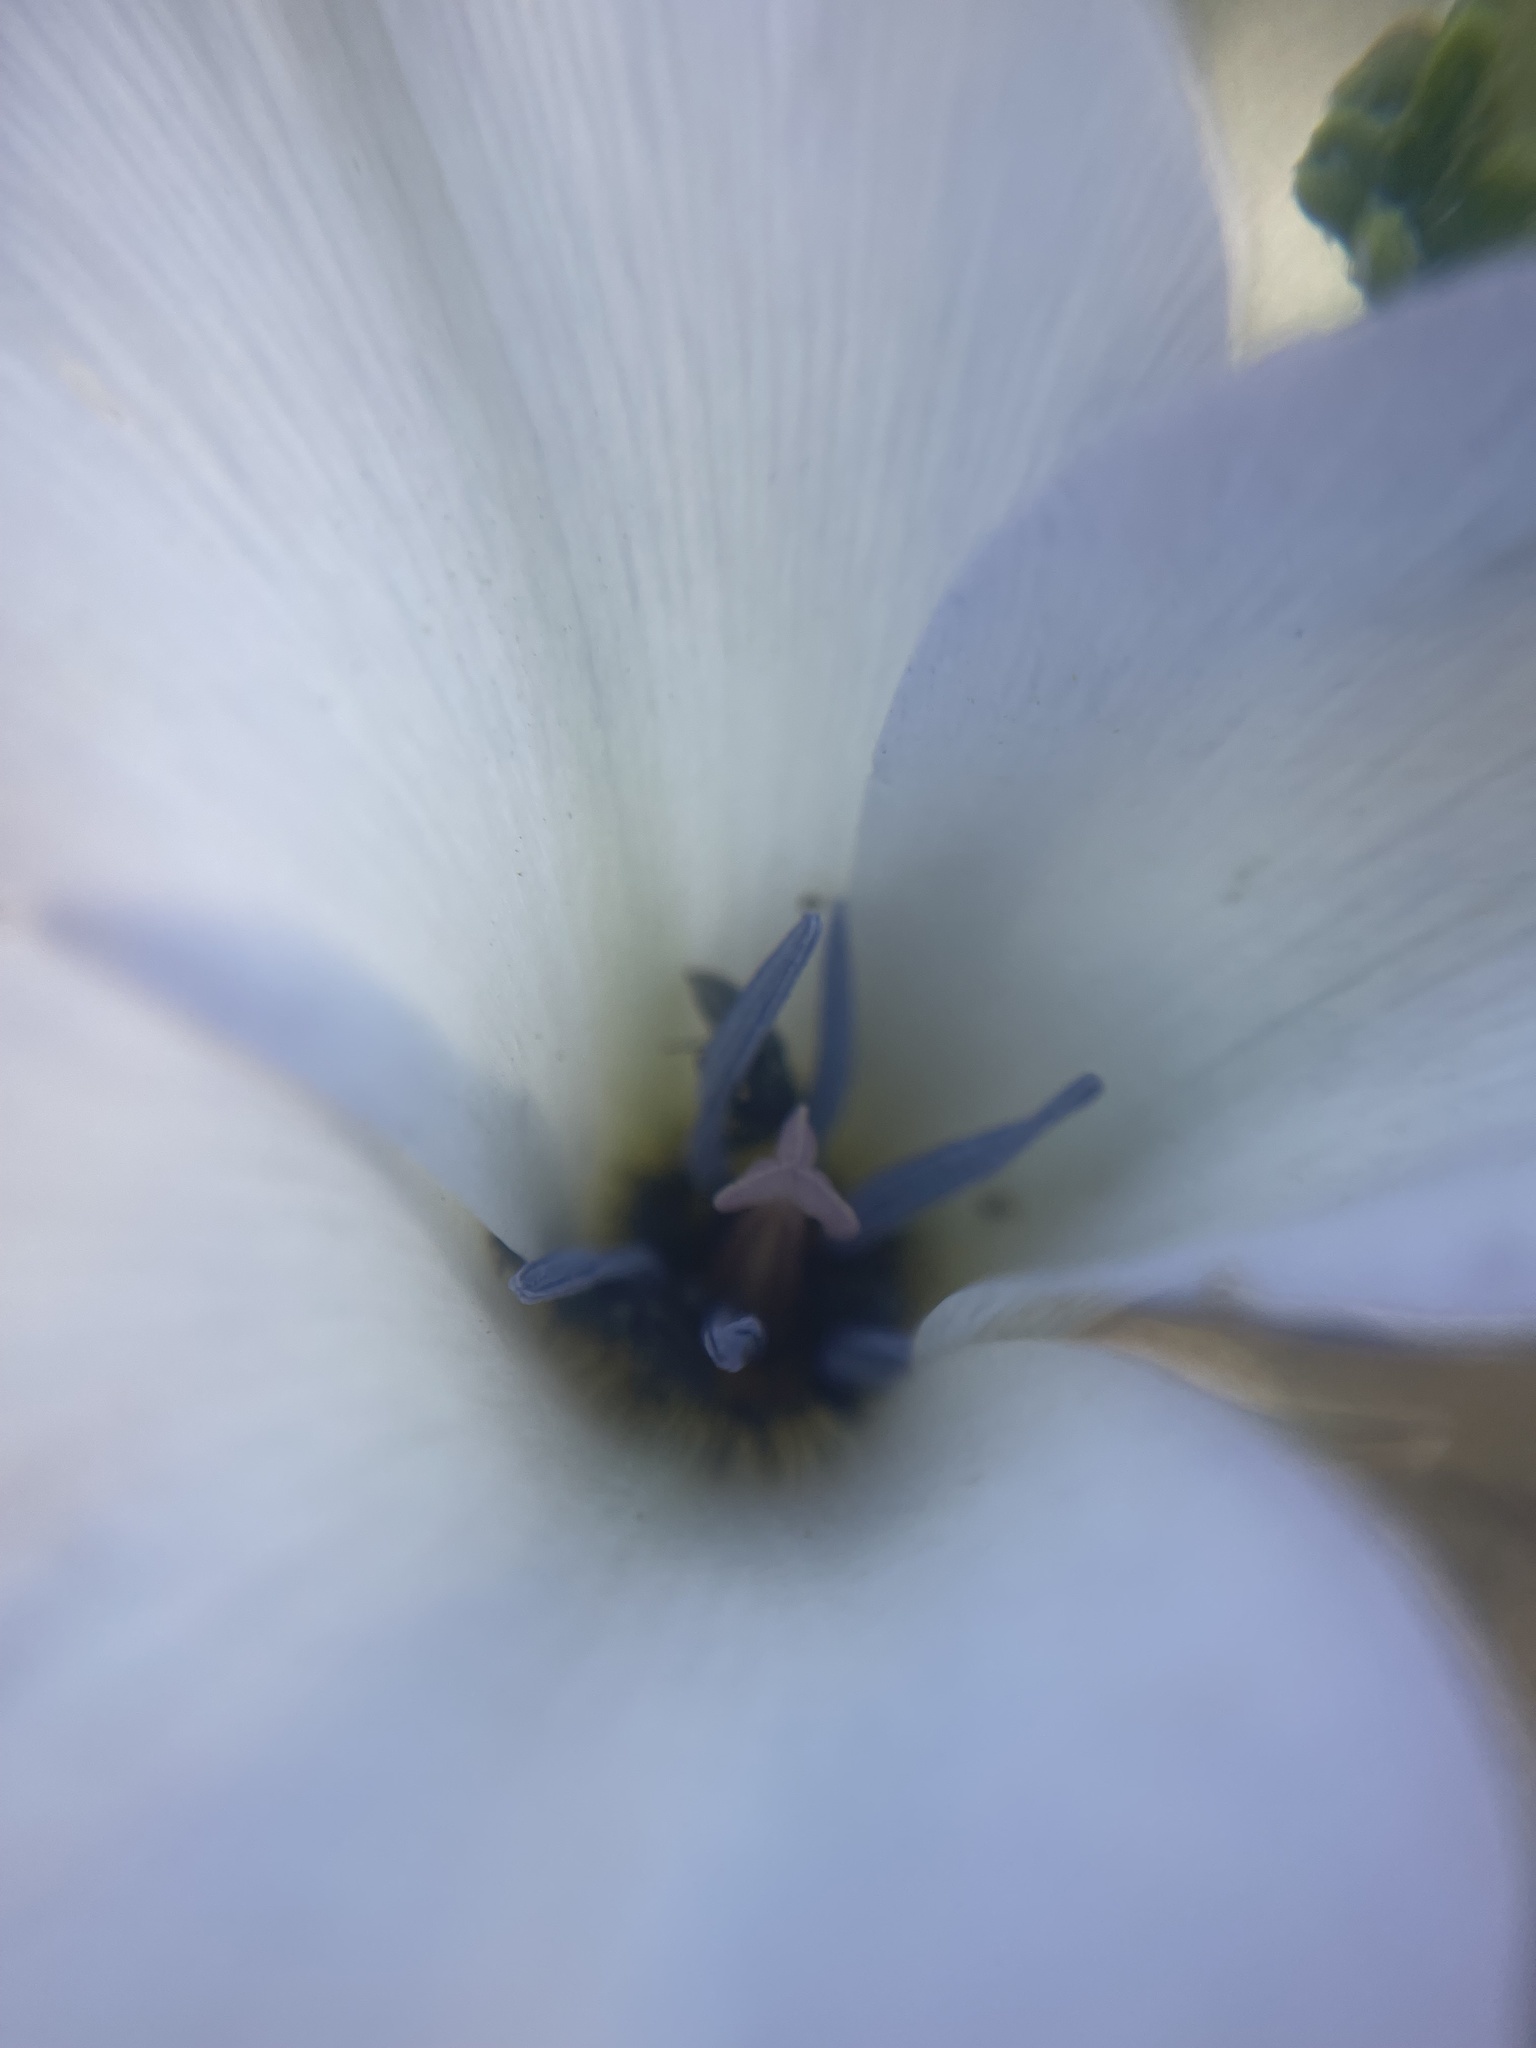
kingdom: Plantae
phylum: Tracheophyta
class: Liliopsida
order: Liliales
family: Liliaceae
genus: Calochortus
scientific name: Calochortus invenustus
